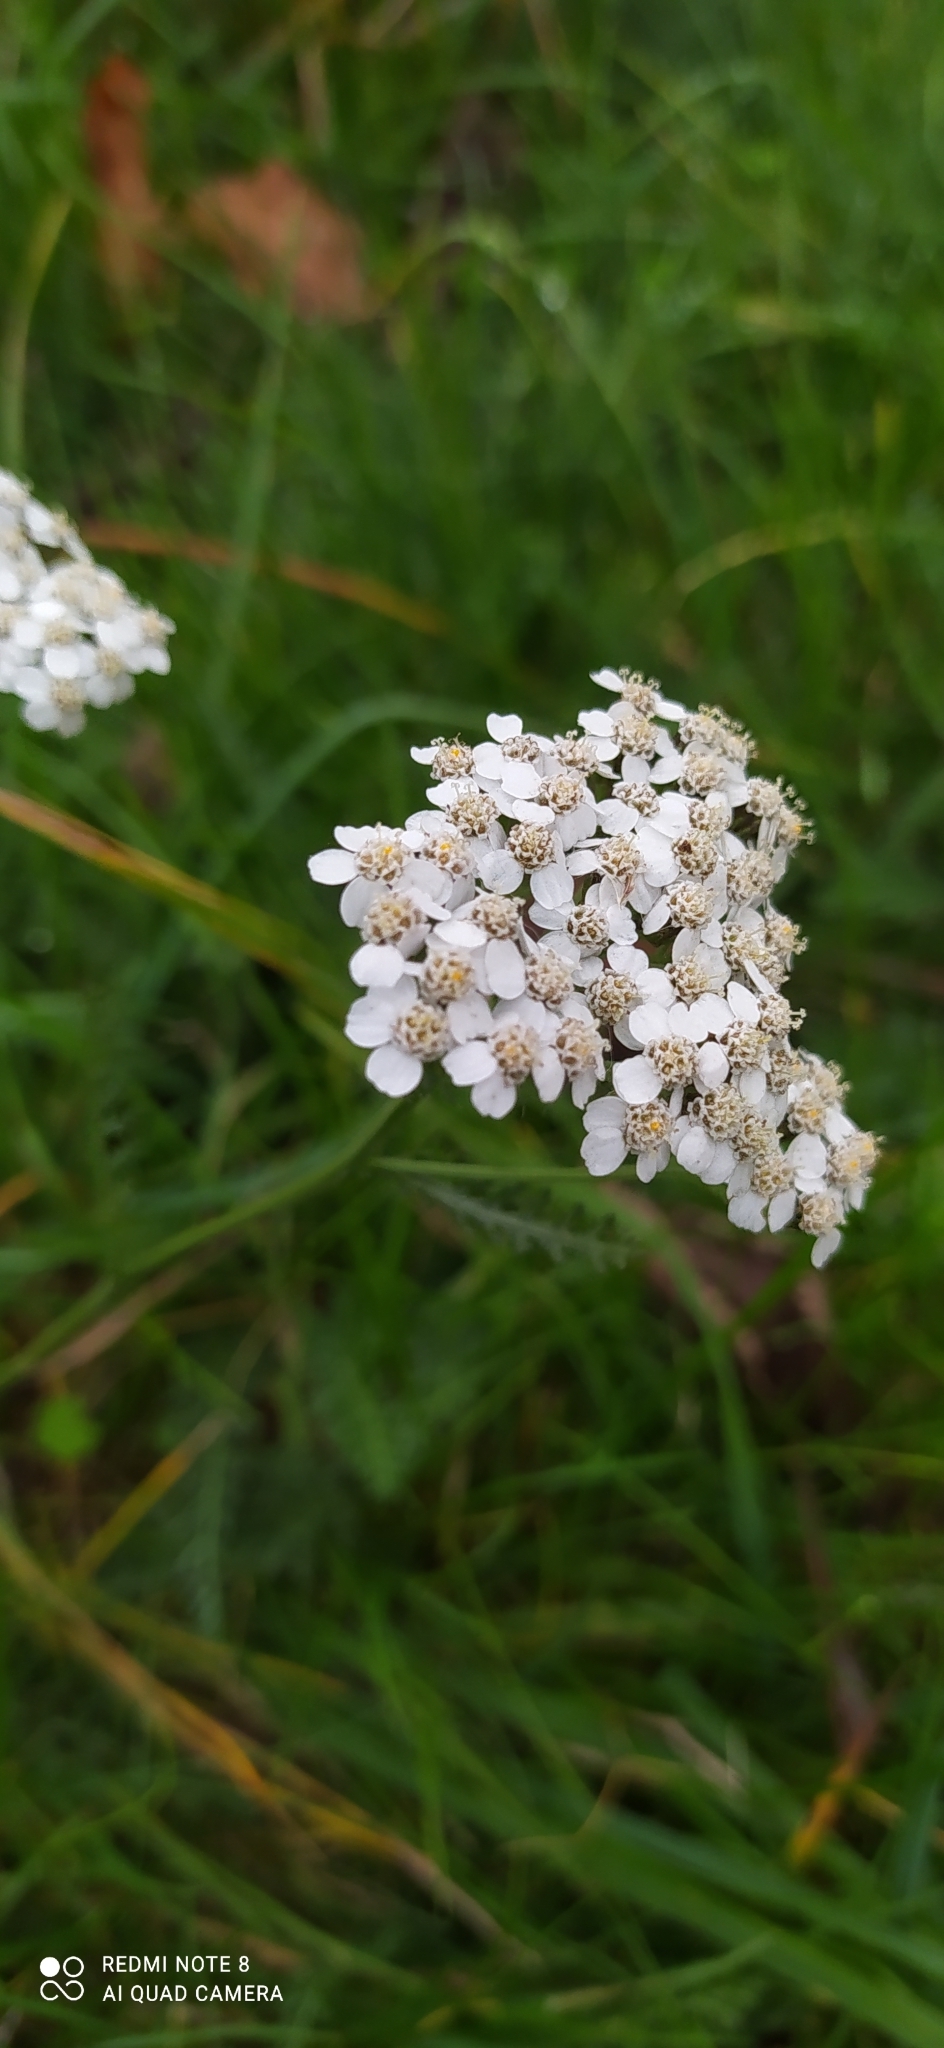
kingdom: Plantae
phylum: Tracheophyta
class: Magnoliopsida
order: Asterales
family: Asteraceae
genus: Achillea
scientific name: Achillea millefolium
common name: Yarrow
